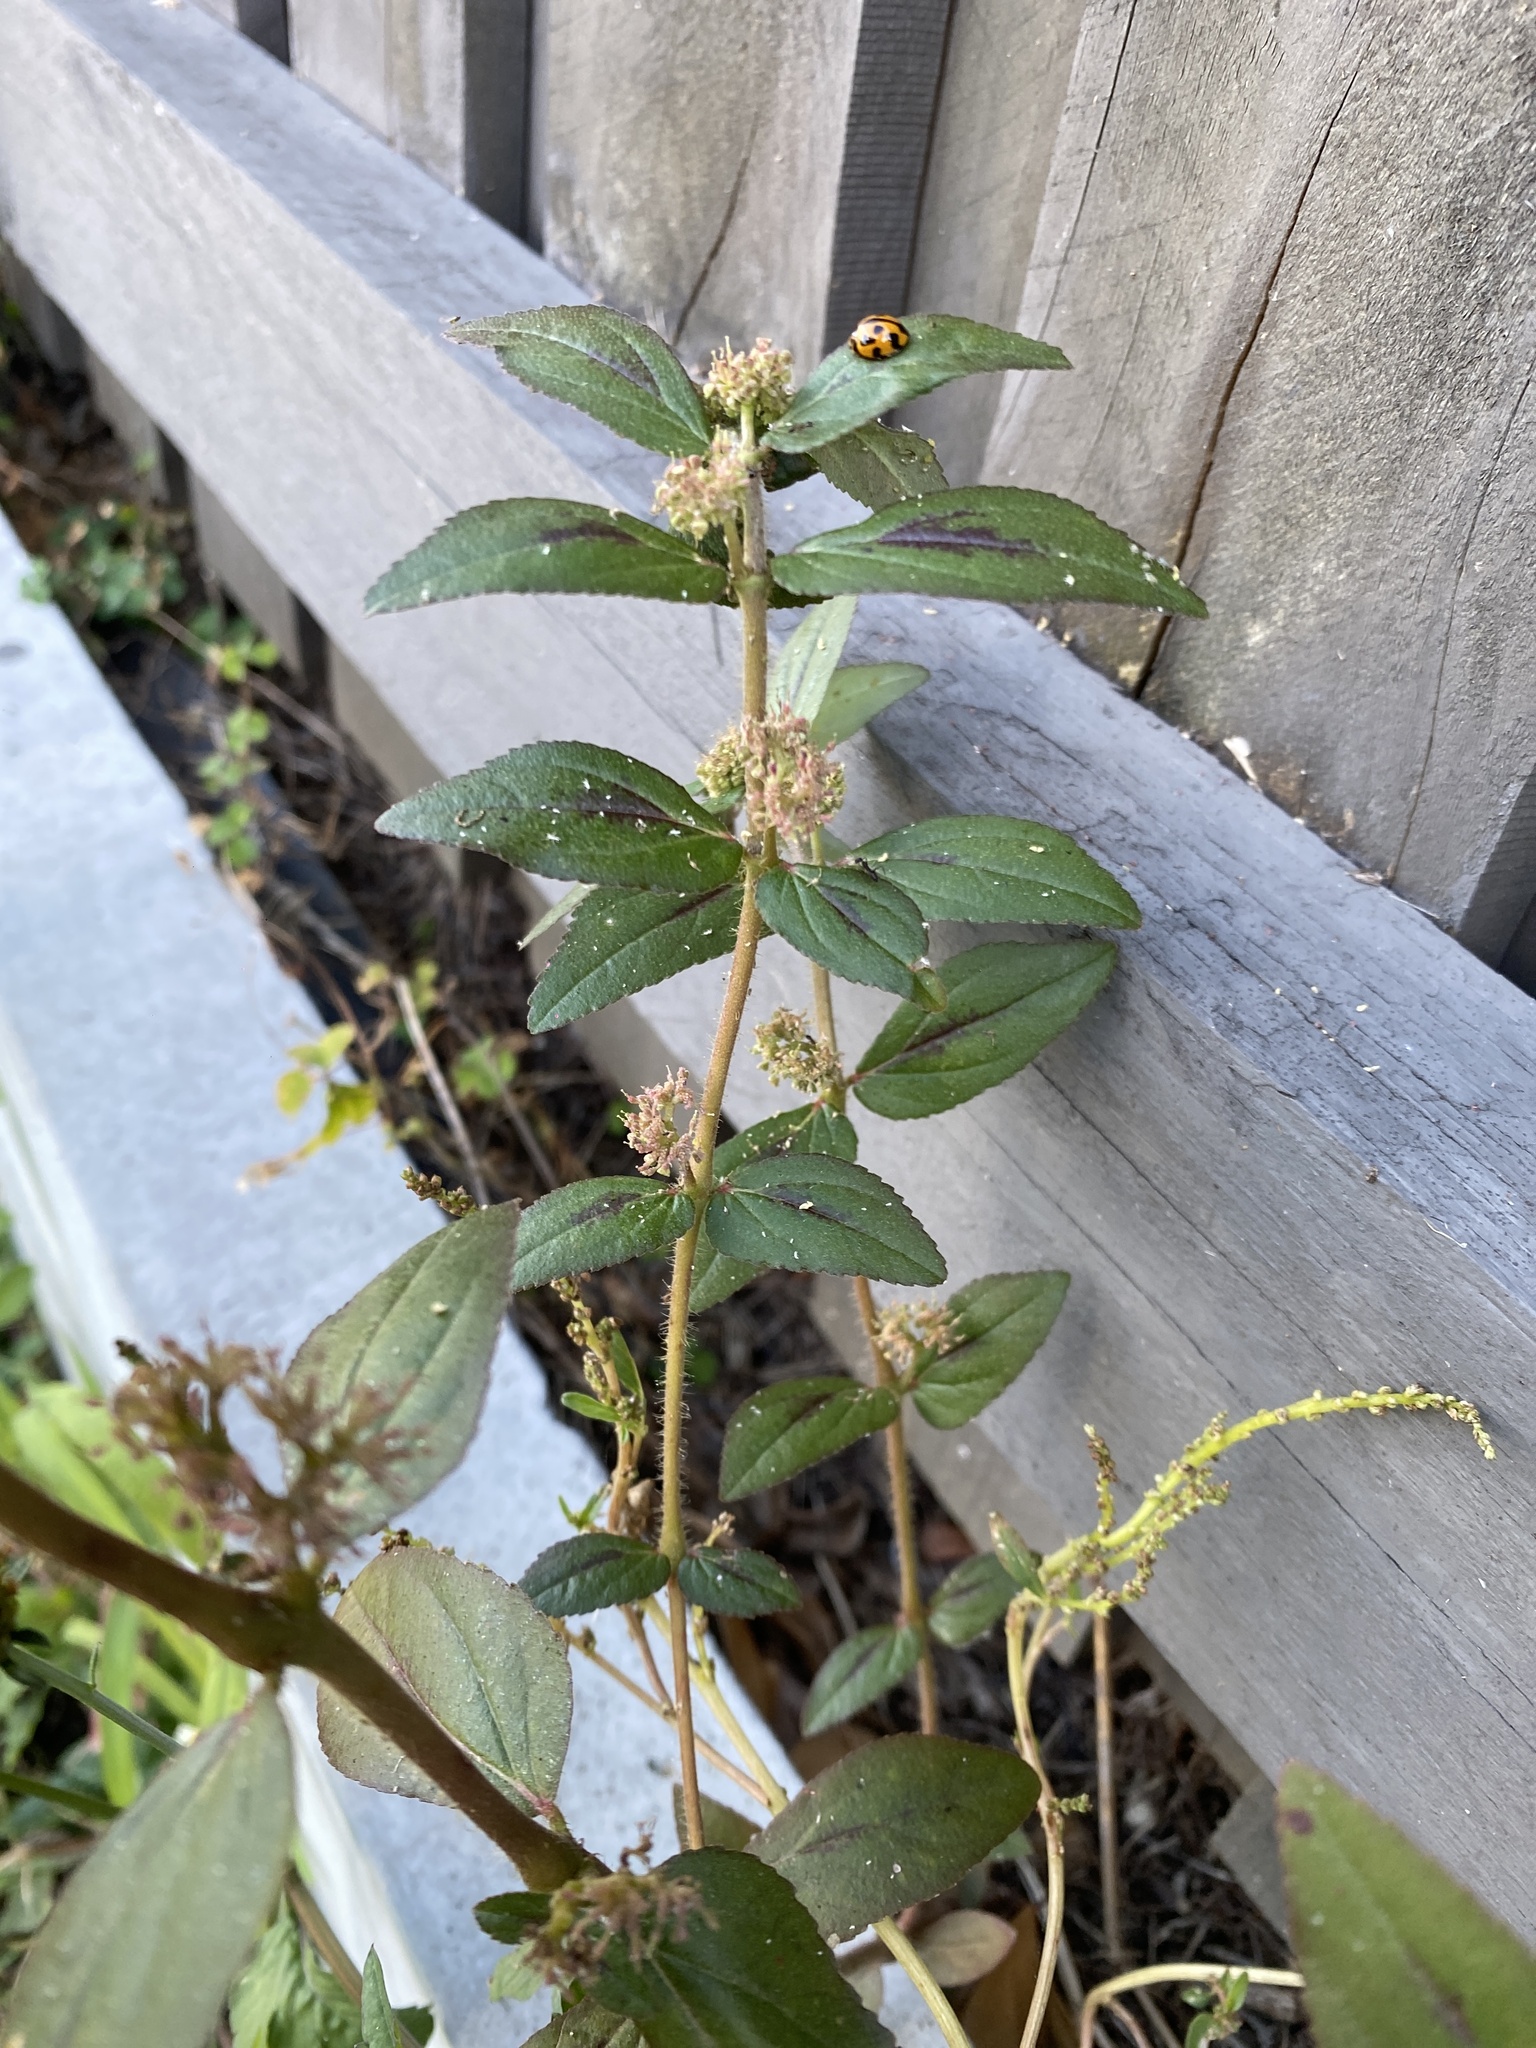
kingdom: Plantae
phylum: Tracheophyta
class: Magnoliopsida
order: Malpighiales
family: Euphorbiaceae
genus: Euphorbia
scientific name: Euphorbia hirta
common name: Pillpod sandmat
